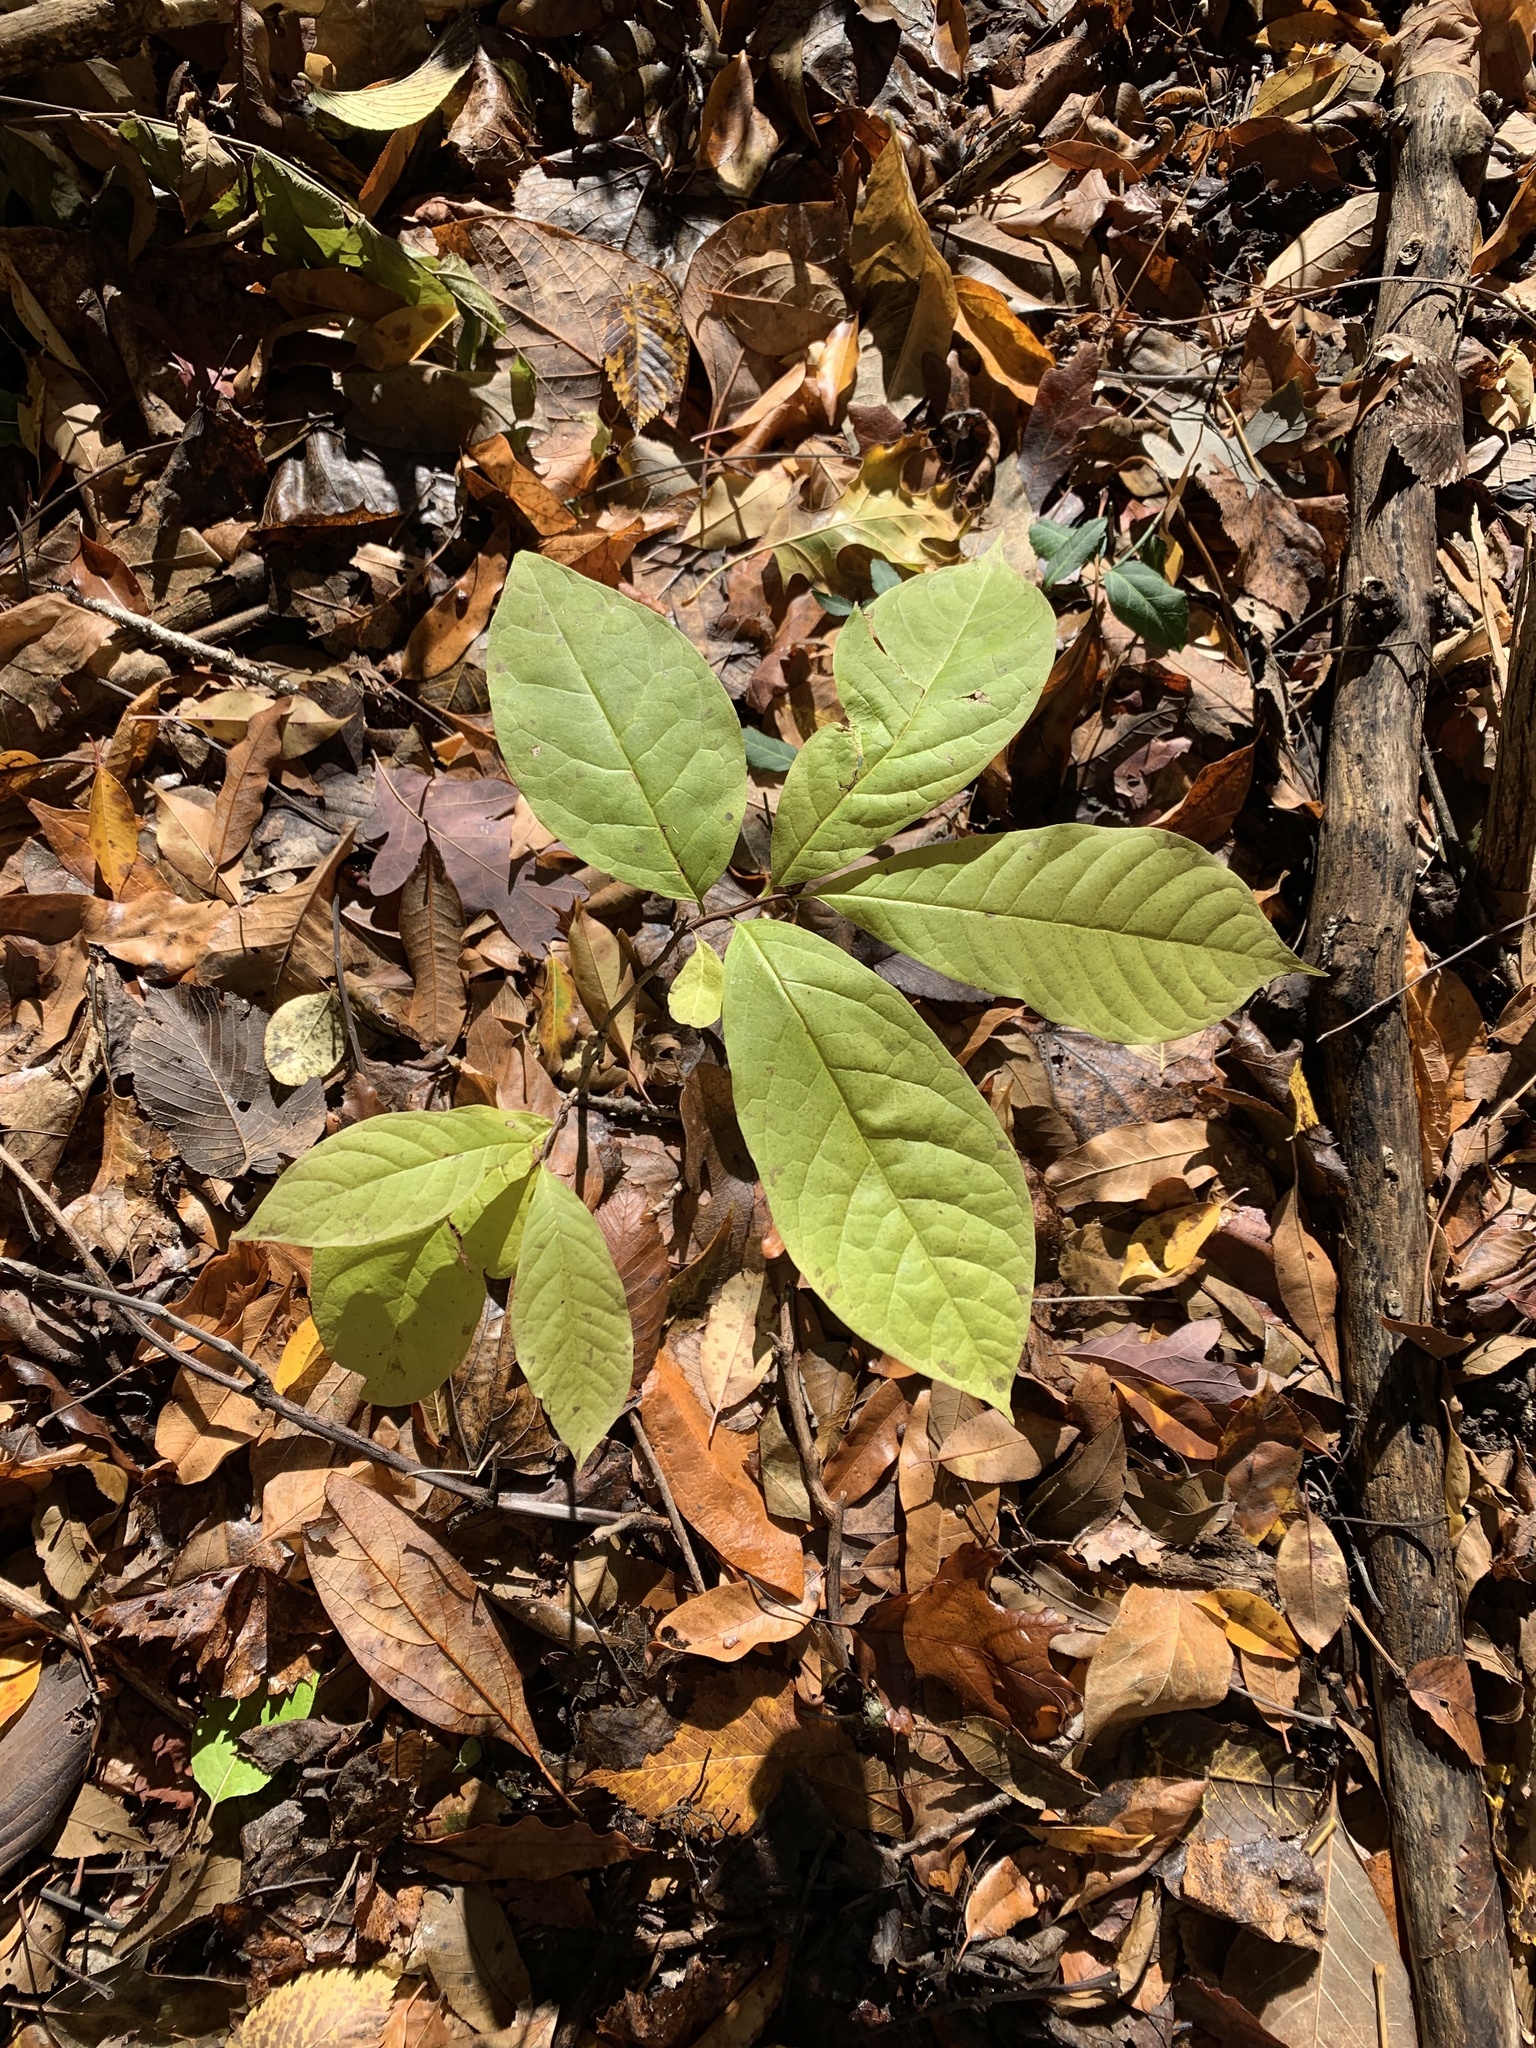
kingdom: Plantae
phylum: Tracheophyta
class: Magnoliopsida
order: Magnoliales
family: Annonaceae
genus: Asimina
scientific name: Asimina triloba
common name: Dog-banana
